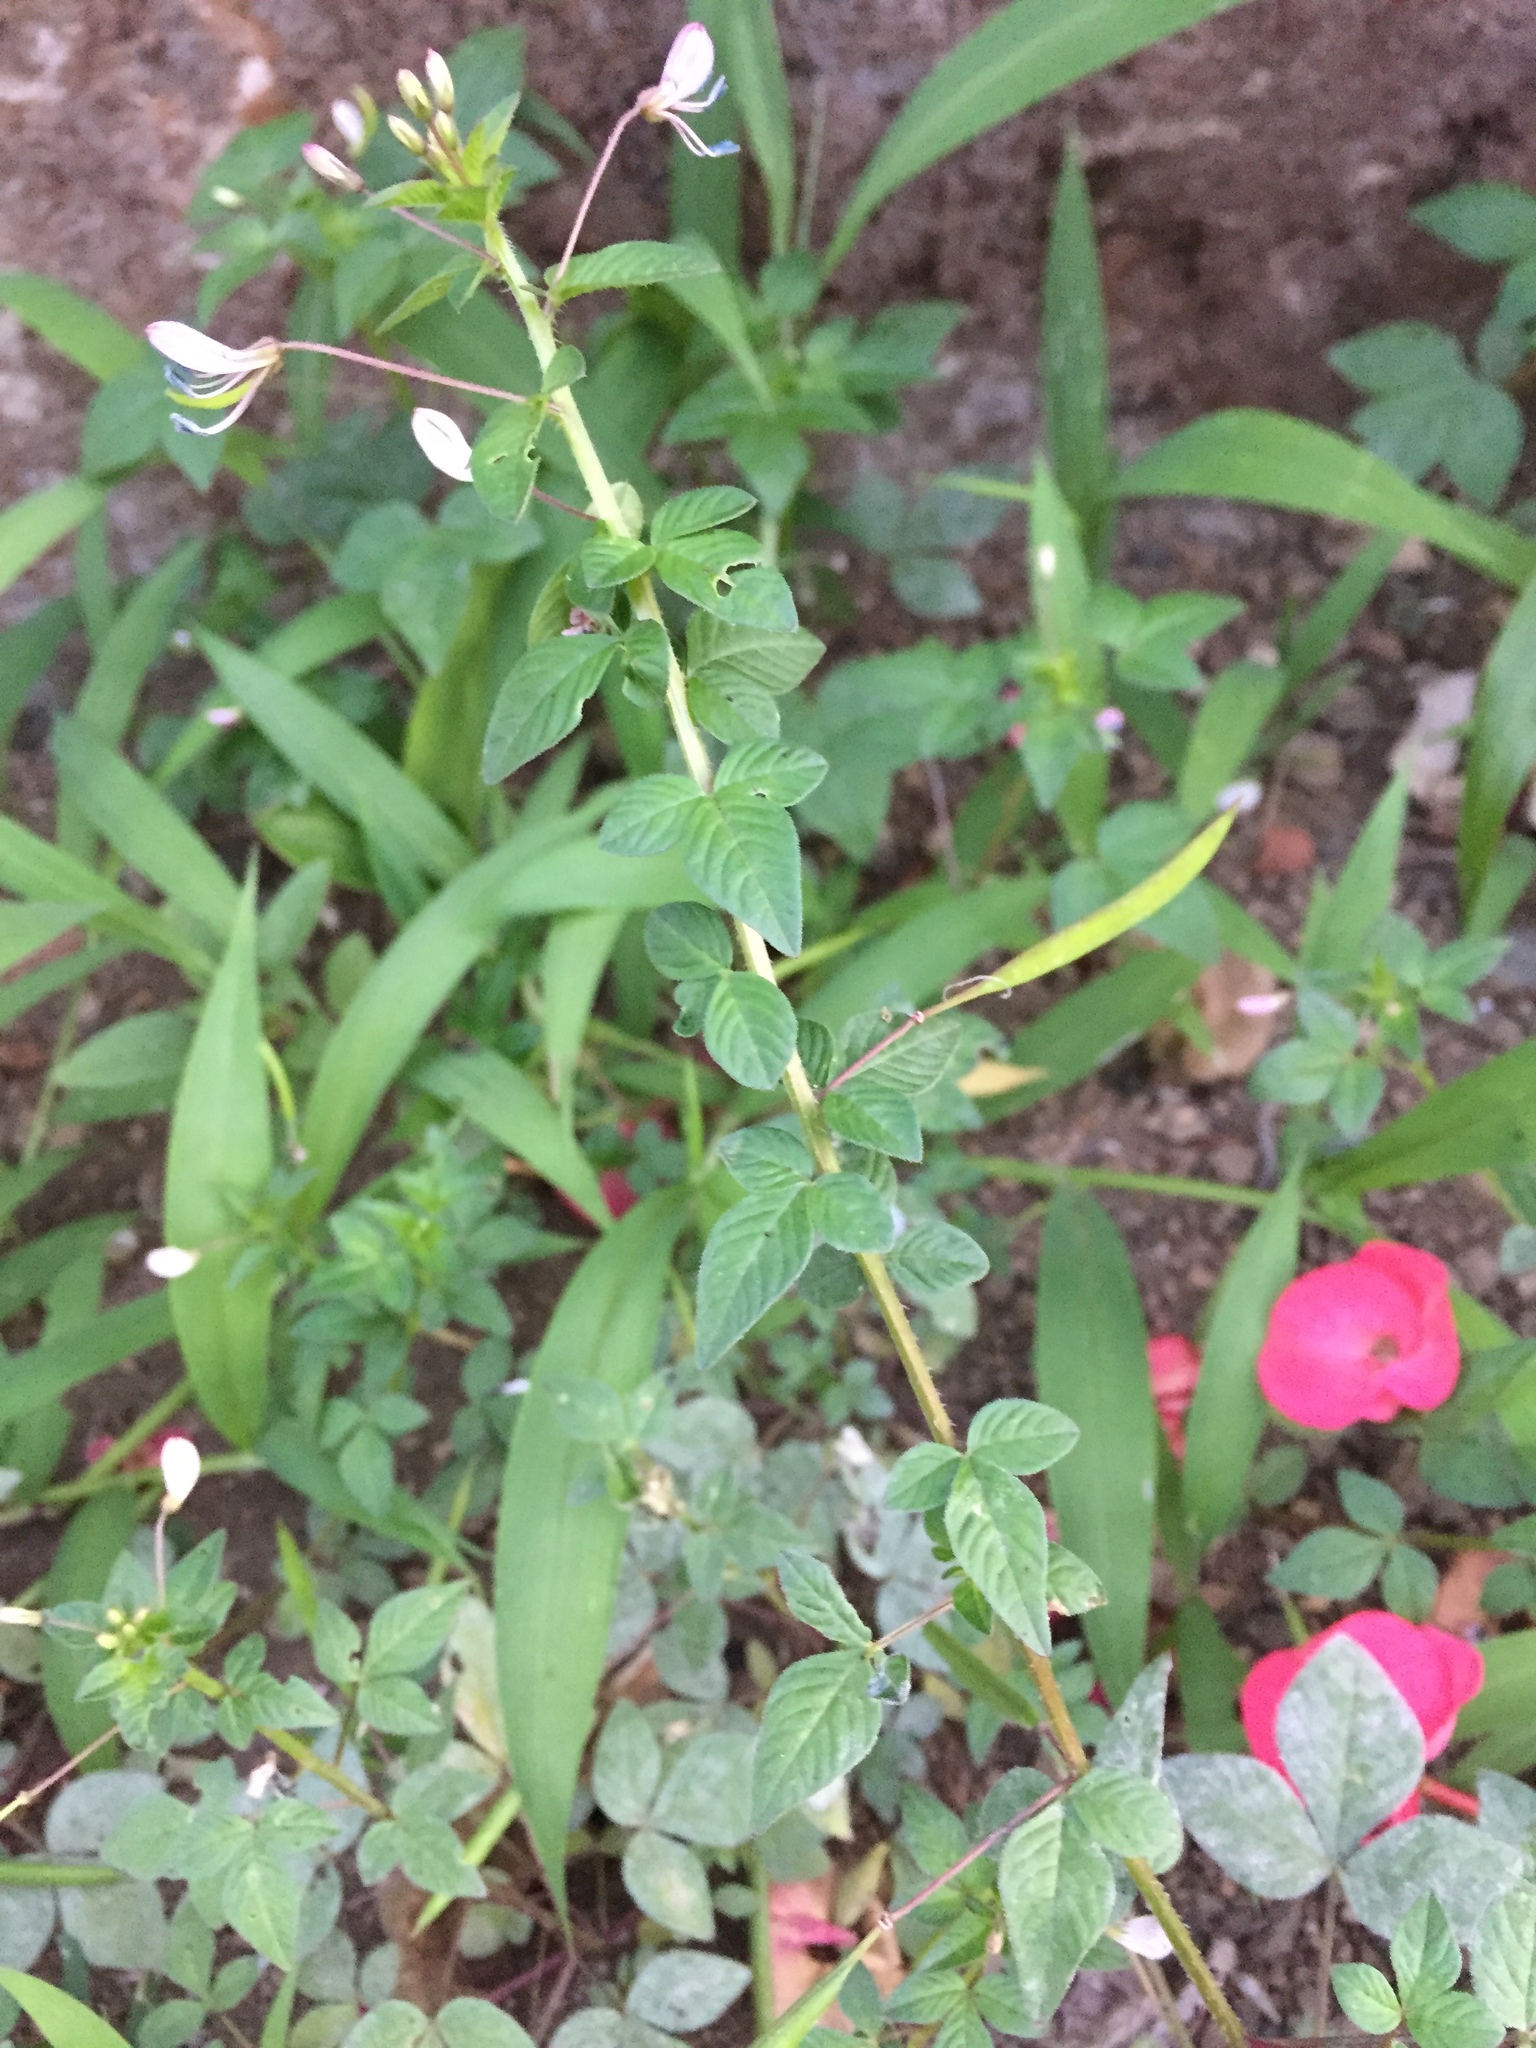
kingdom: Plantae
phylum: Tracheophyta
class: Magnoliopsida
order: Brassicales
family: Cleomaceae
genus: Sieruela
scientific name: Sieruela rutidosperma
